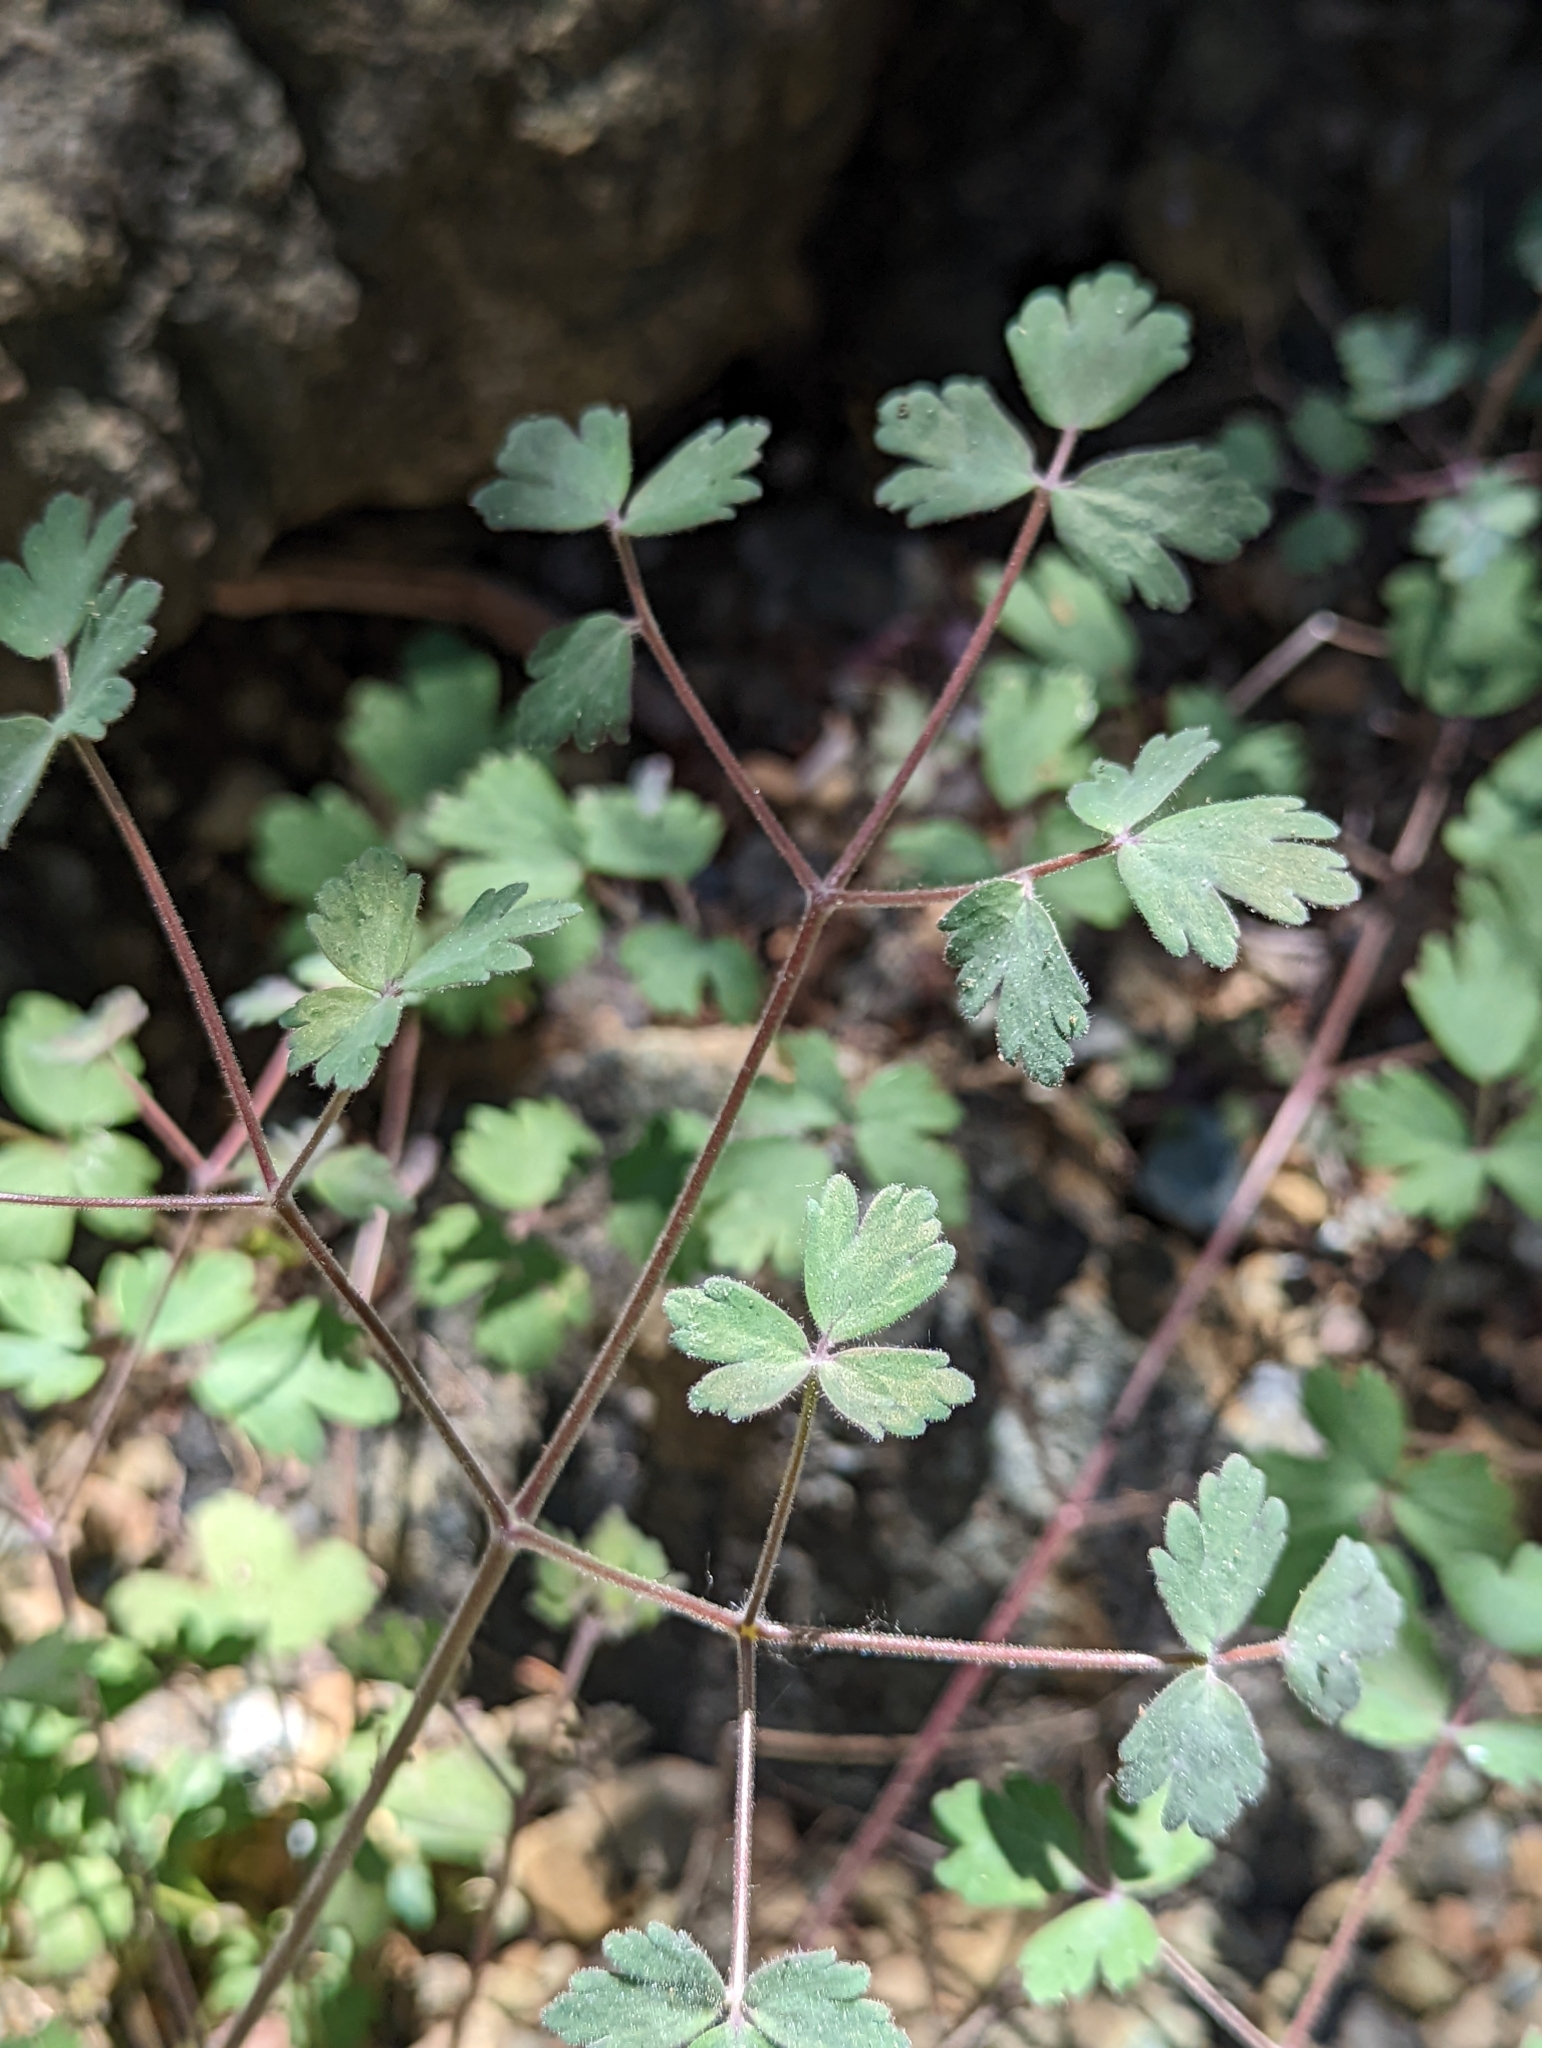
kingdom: Plantae
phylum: Tracheophyta
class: Magnoliopsida
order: Ranunculales
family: Ranunculaceae
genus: Aquilegia
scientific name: Aquilegia eximia
